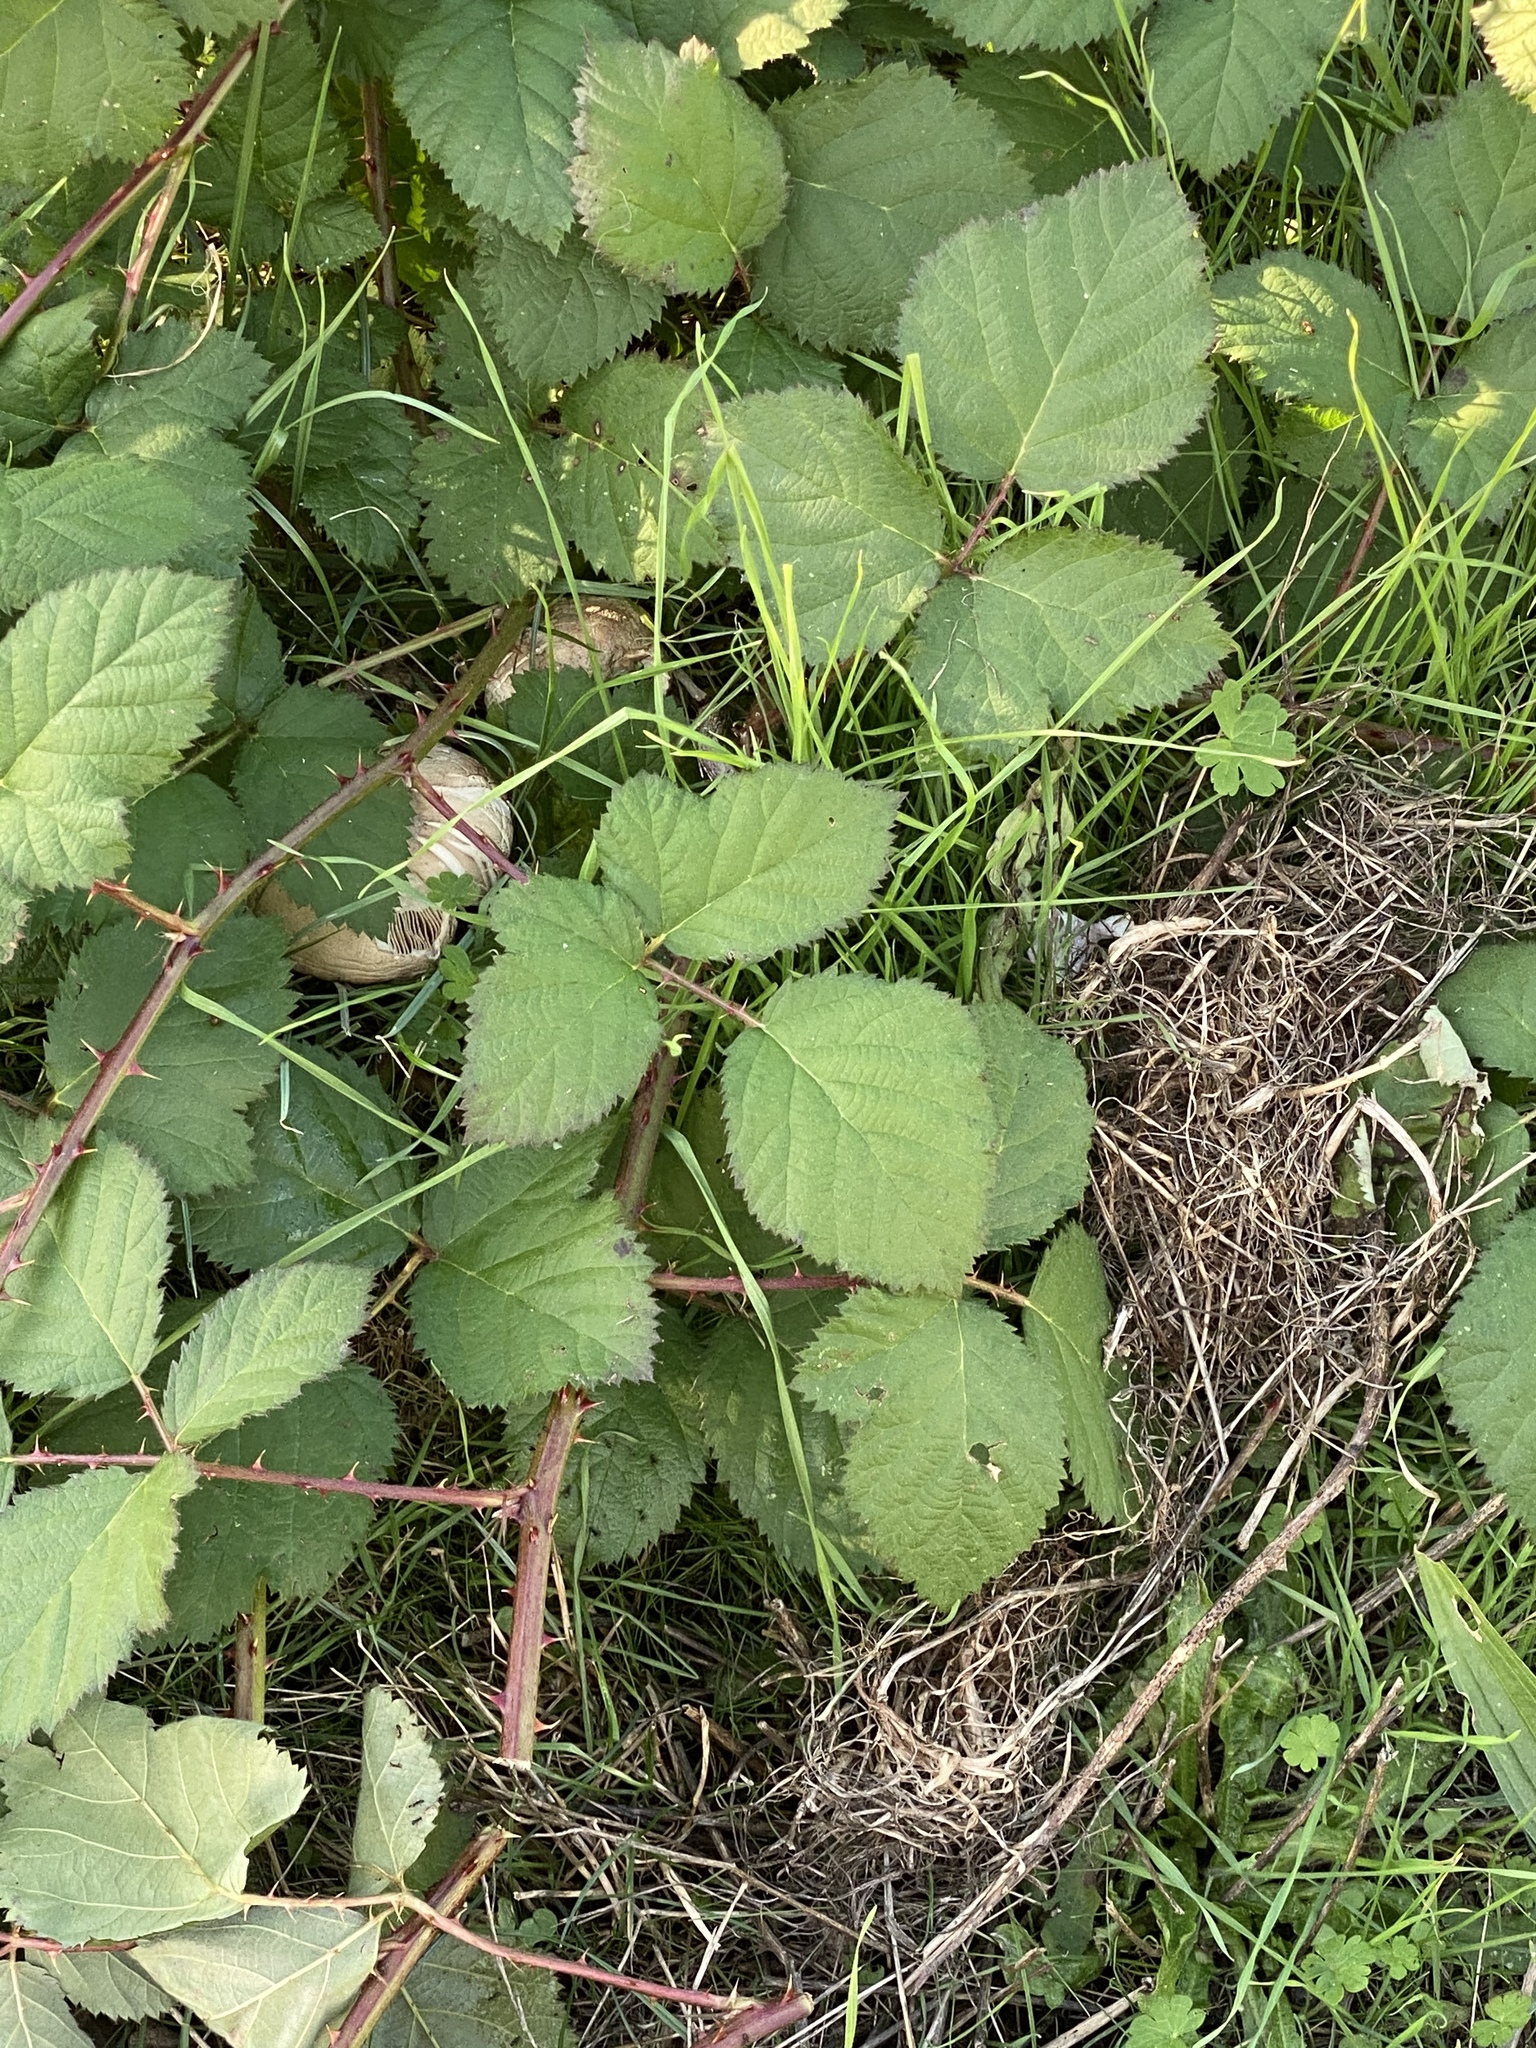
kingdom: Plantae
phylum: Tracheophyta
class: Magnoliopsida
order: Rosales
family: Rosaceae
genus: Rubus
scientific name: Rubus bifrons
